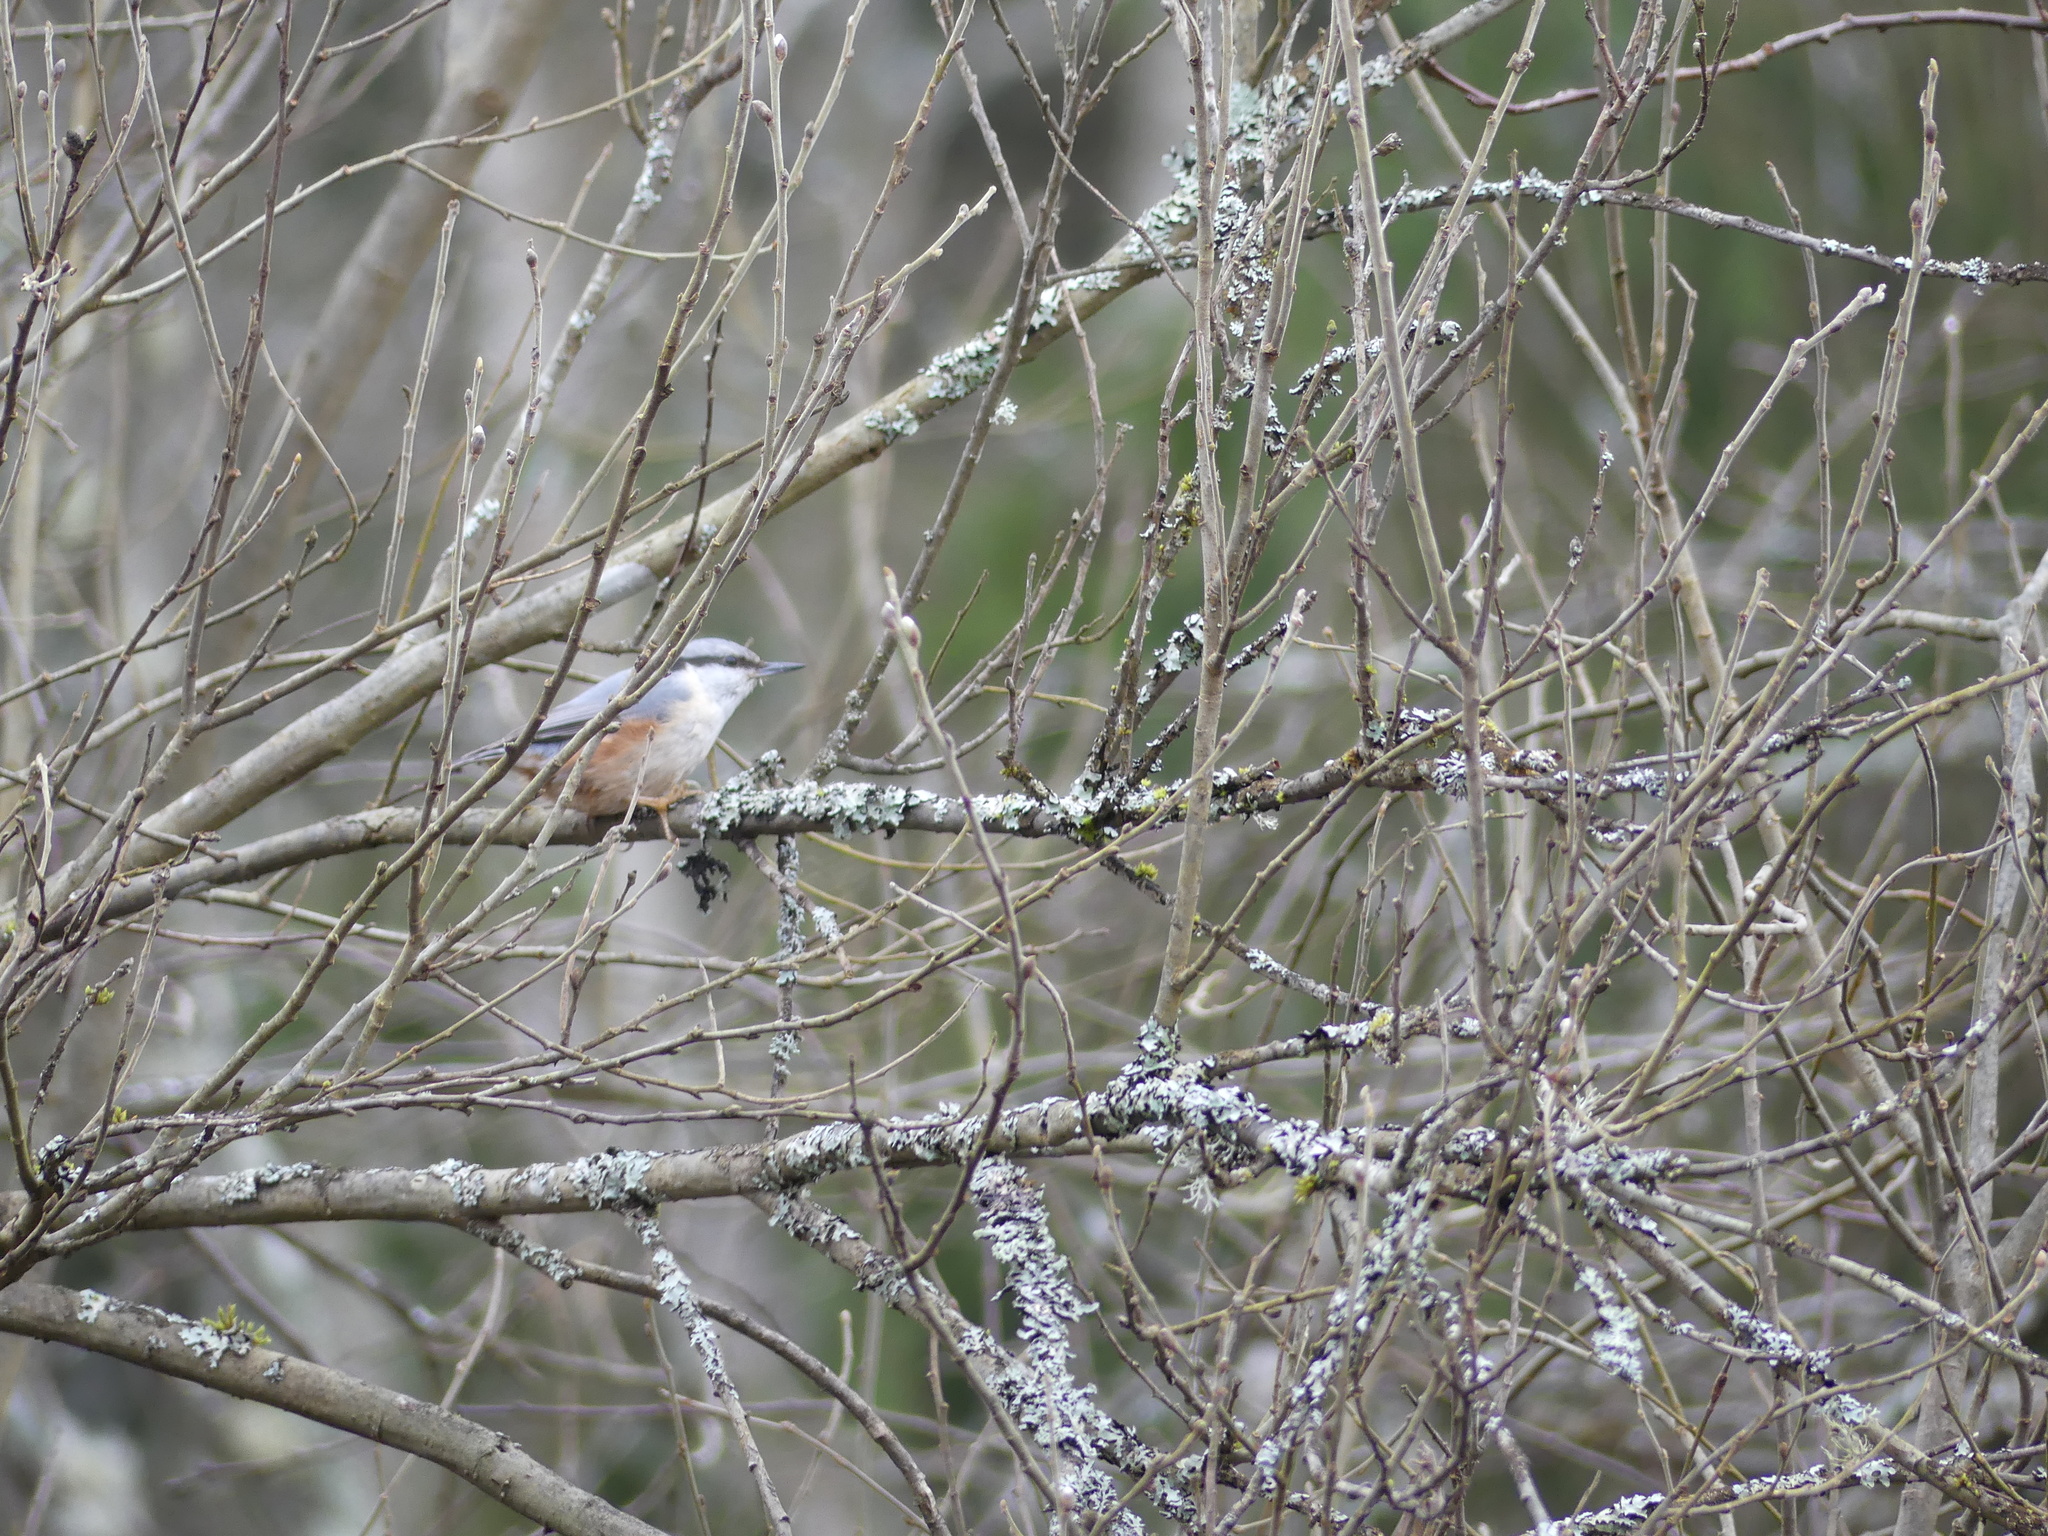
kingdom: Animalia
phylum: Chordata
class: Aves
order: Passeriformes
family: Sittidae
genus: Sitta
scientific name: Sitta europaea
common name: Eurasian nuthatch
